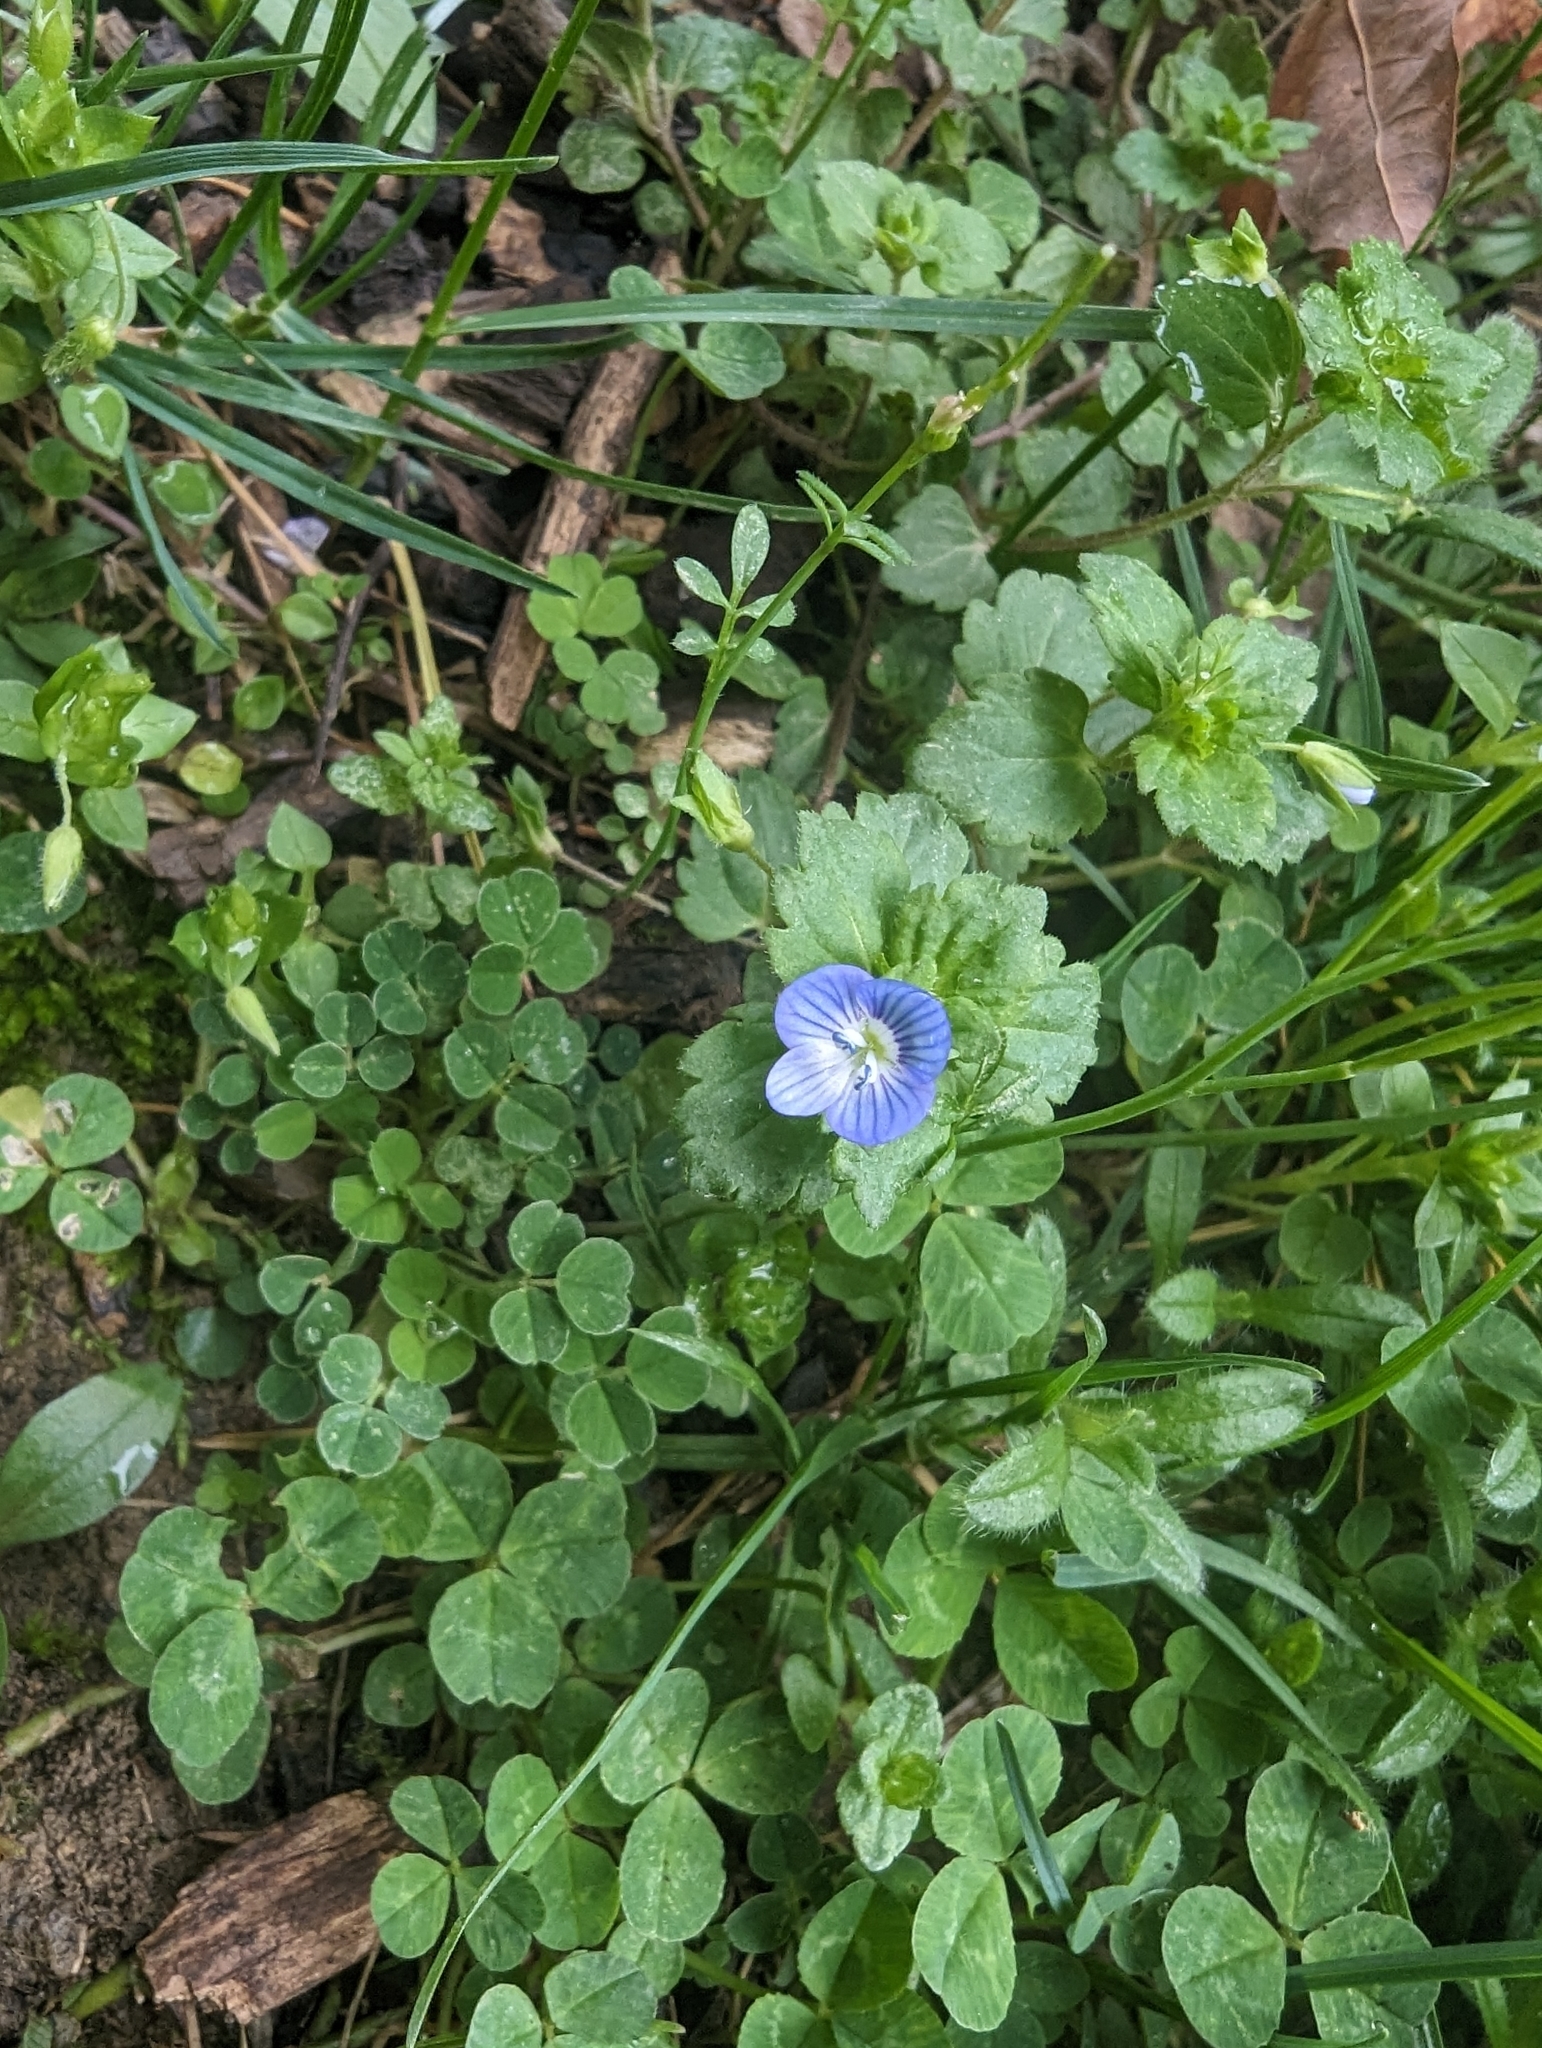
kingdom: Plantae
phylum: Tracheophyta
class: Magnoliopsida
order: Lamiales
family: Plantaginaceae
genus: Veronica
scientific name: Veronica persica
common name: Common field-speedwell
